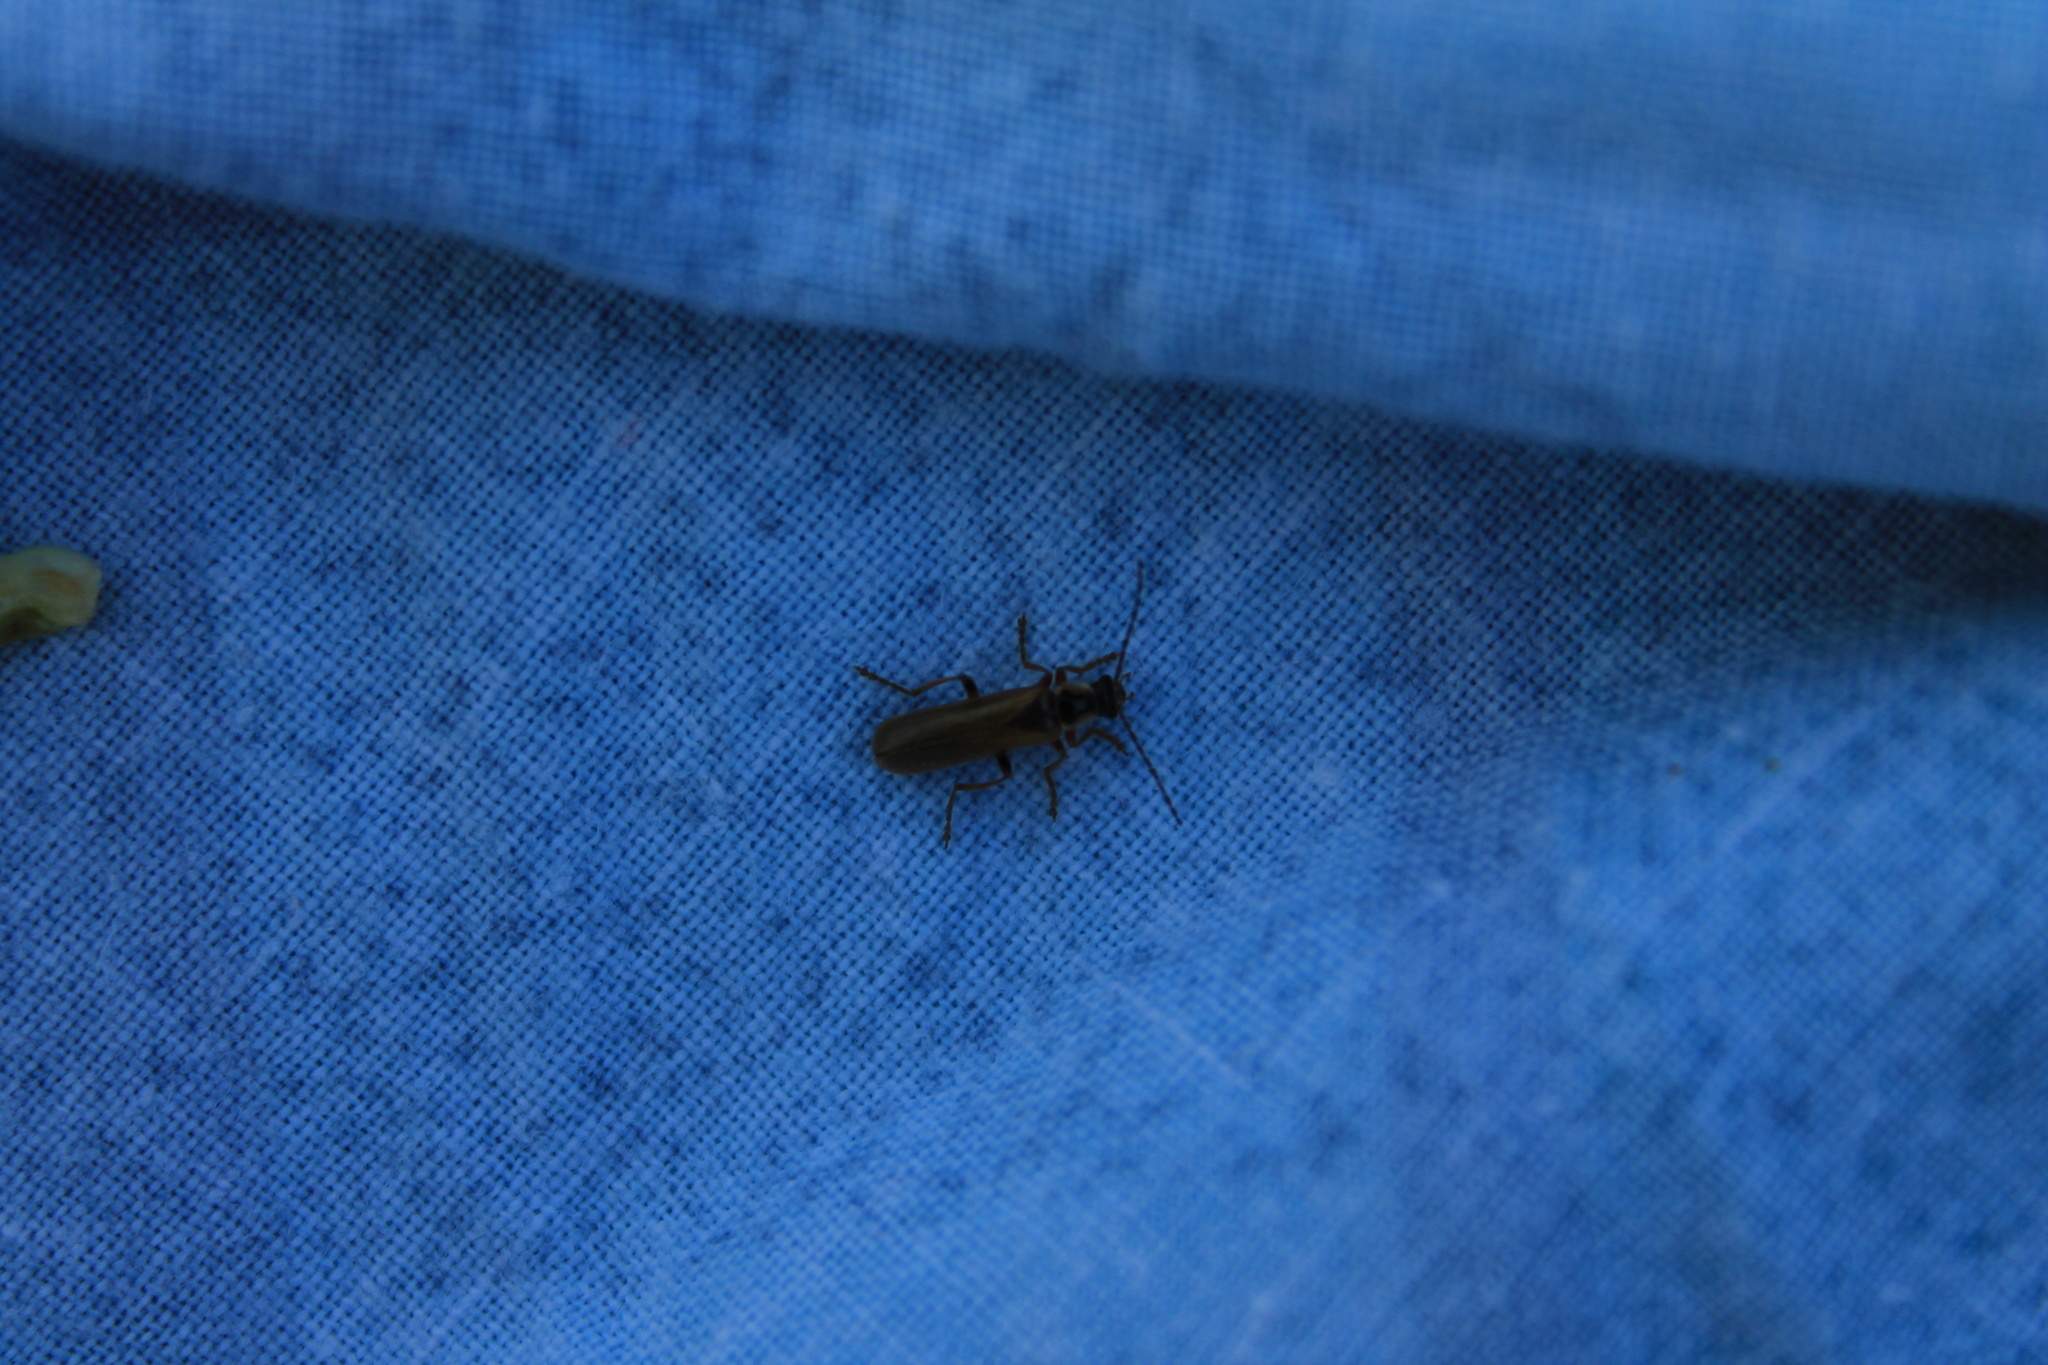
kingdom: Animalia
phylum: Arthropoda
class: Insecta
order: Coleoptera
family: Cantharidae
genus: Cantharis
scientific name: Cantharis decipiens
